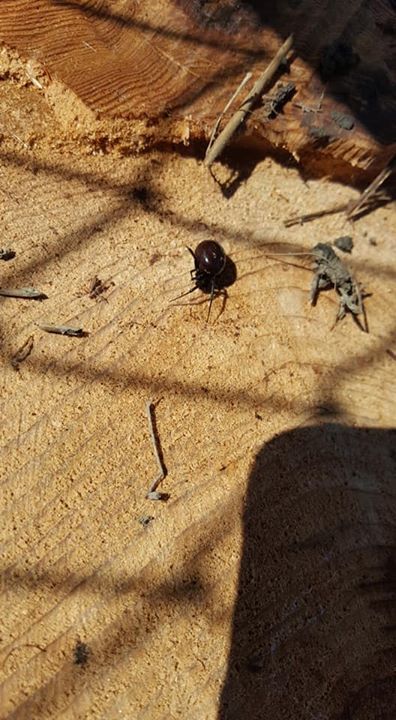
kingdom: Animalia
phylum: Arthropoda
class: Arachnida
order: Araneae
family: Theridiidae
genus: Steatoda
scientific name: Steatoda capensis
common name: Cobweb weaver
